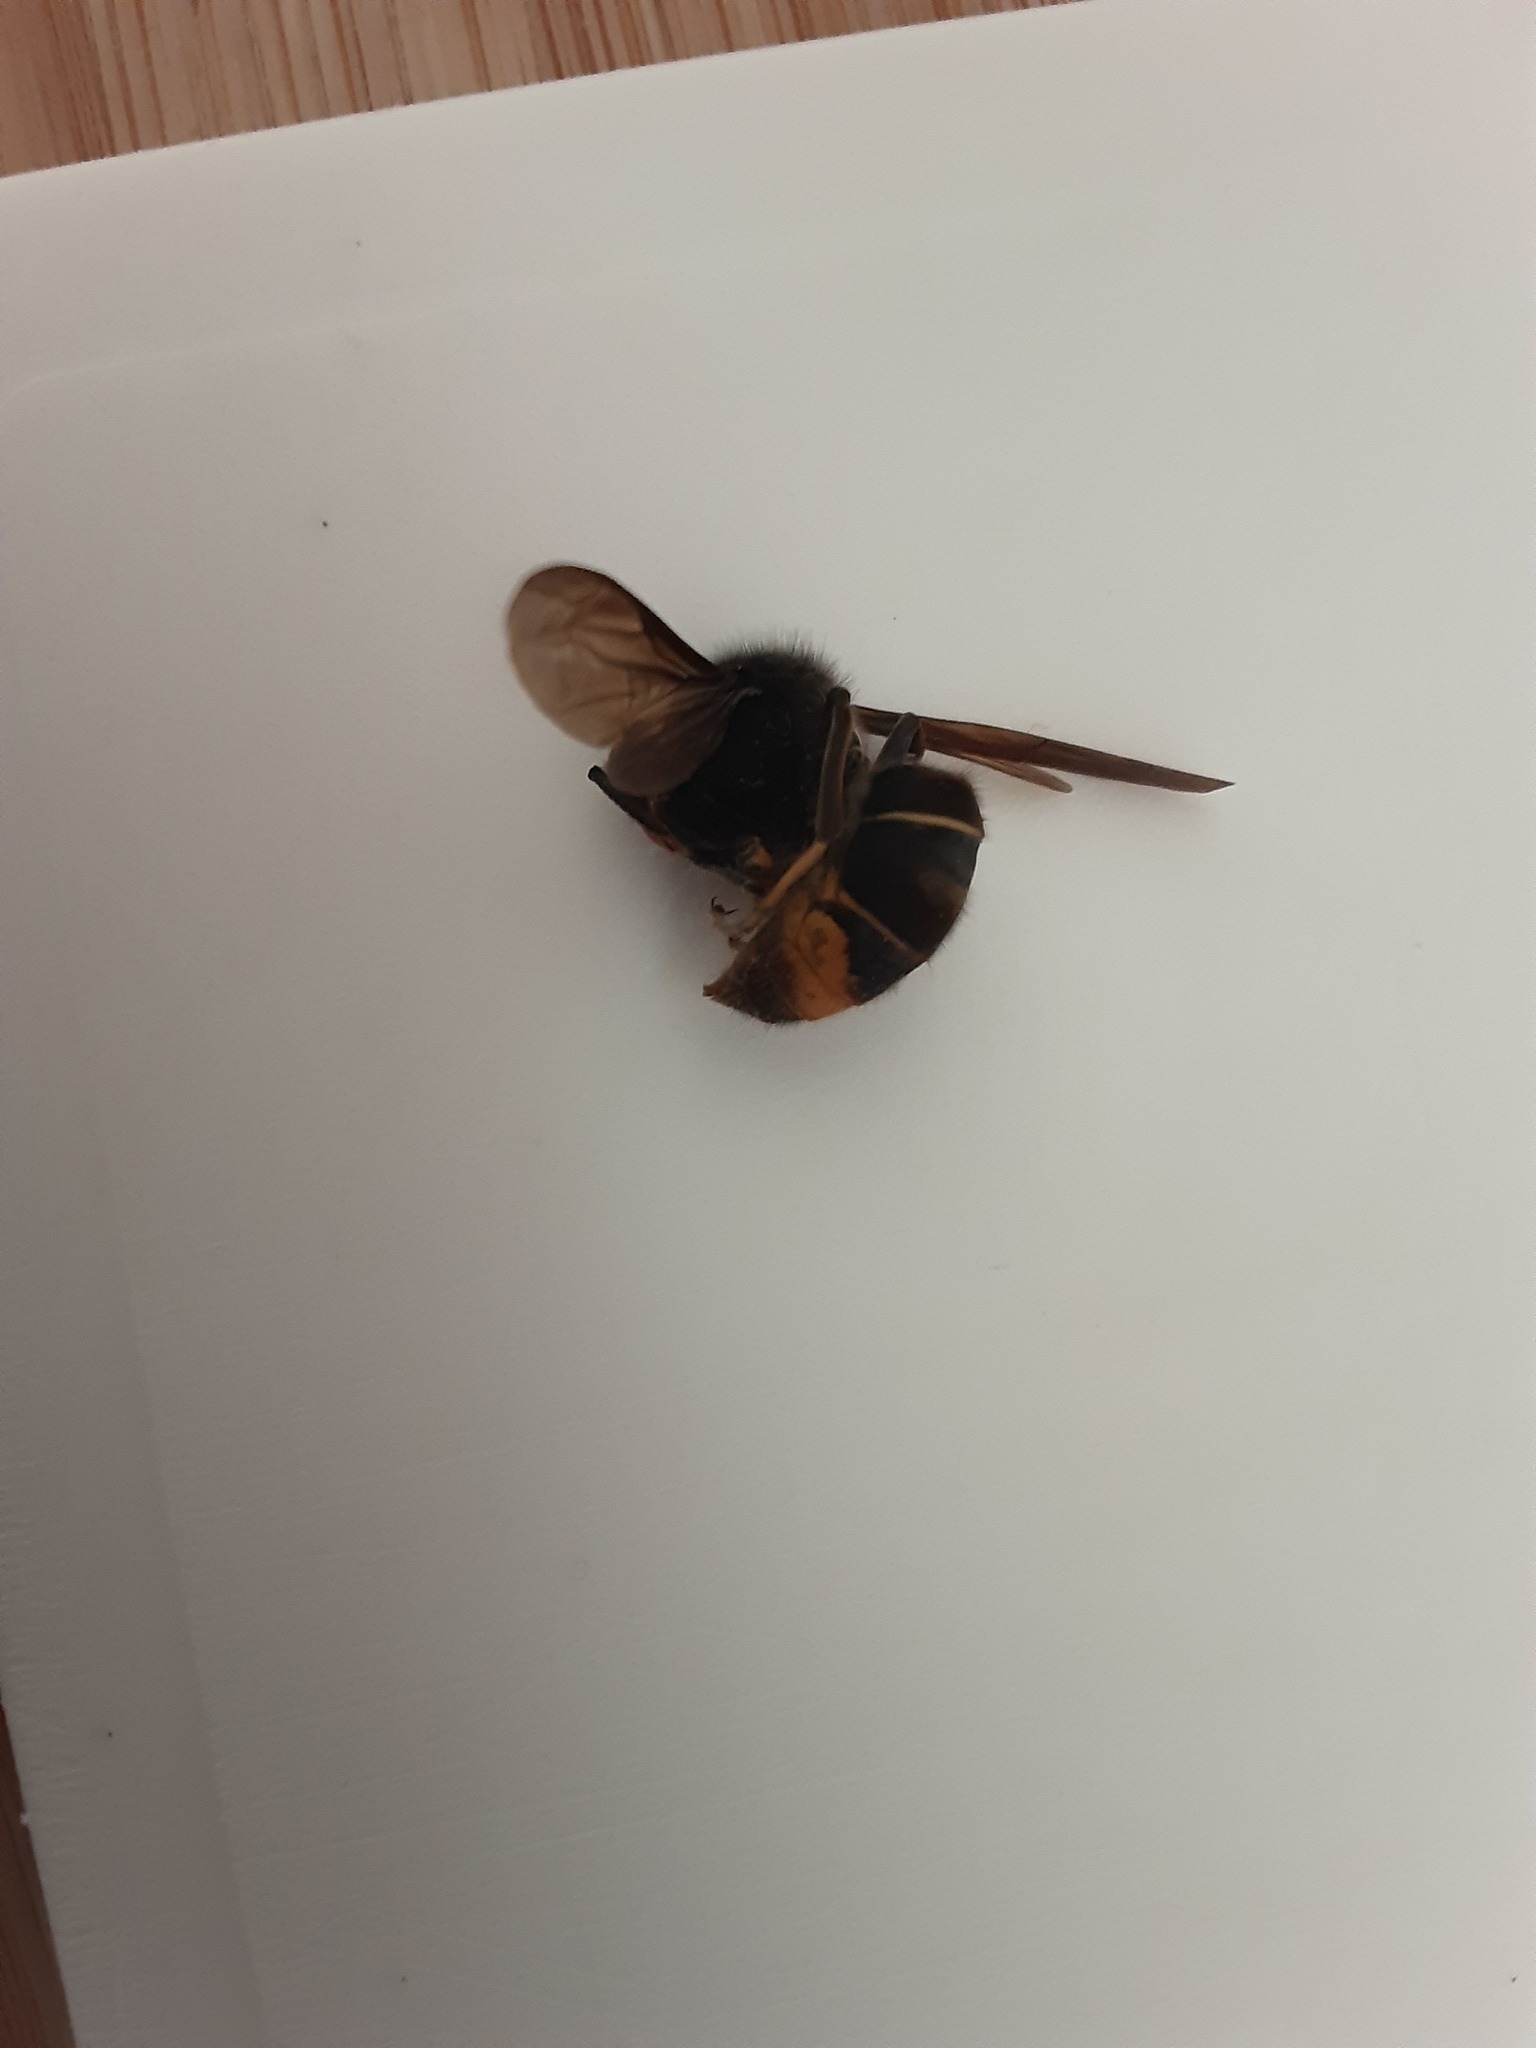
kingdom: Animalia
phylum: Arthropoda
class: Insecta
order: Hymenoptera
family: Vespidae
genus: Vespa
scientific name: Vespa velutina
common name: Asian hornet
